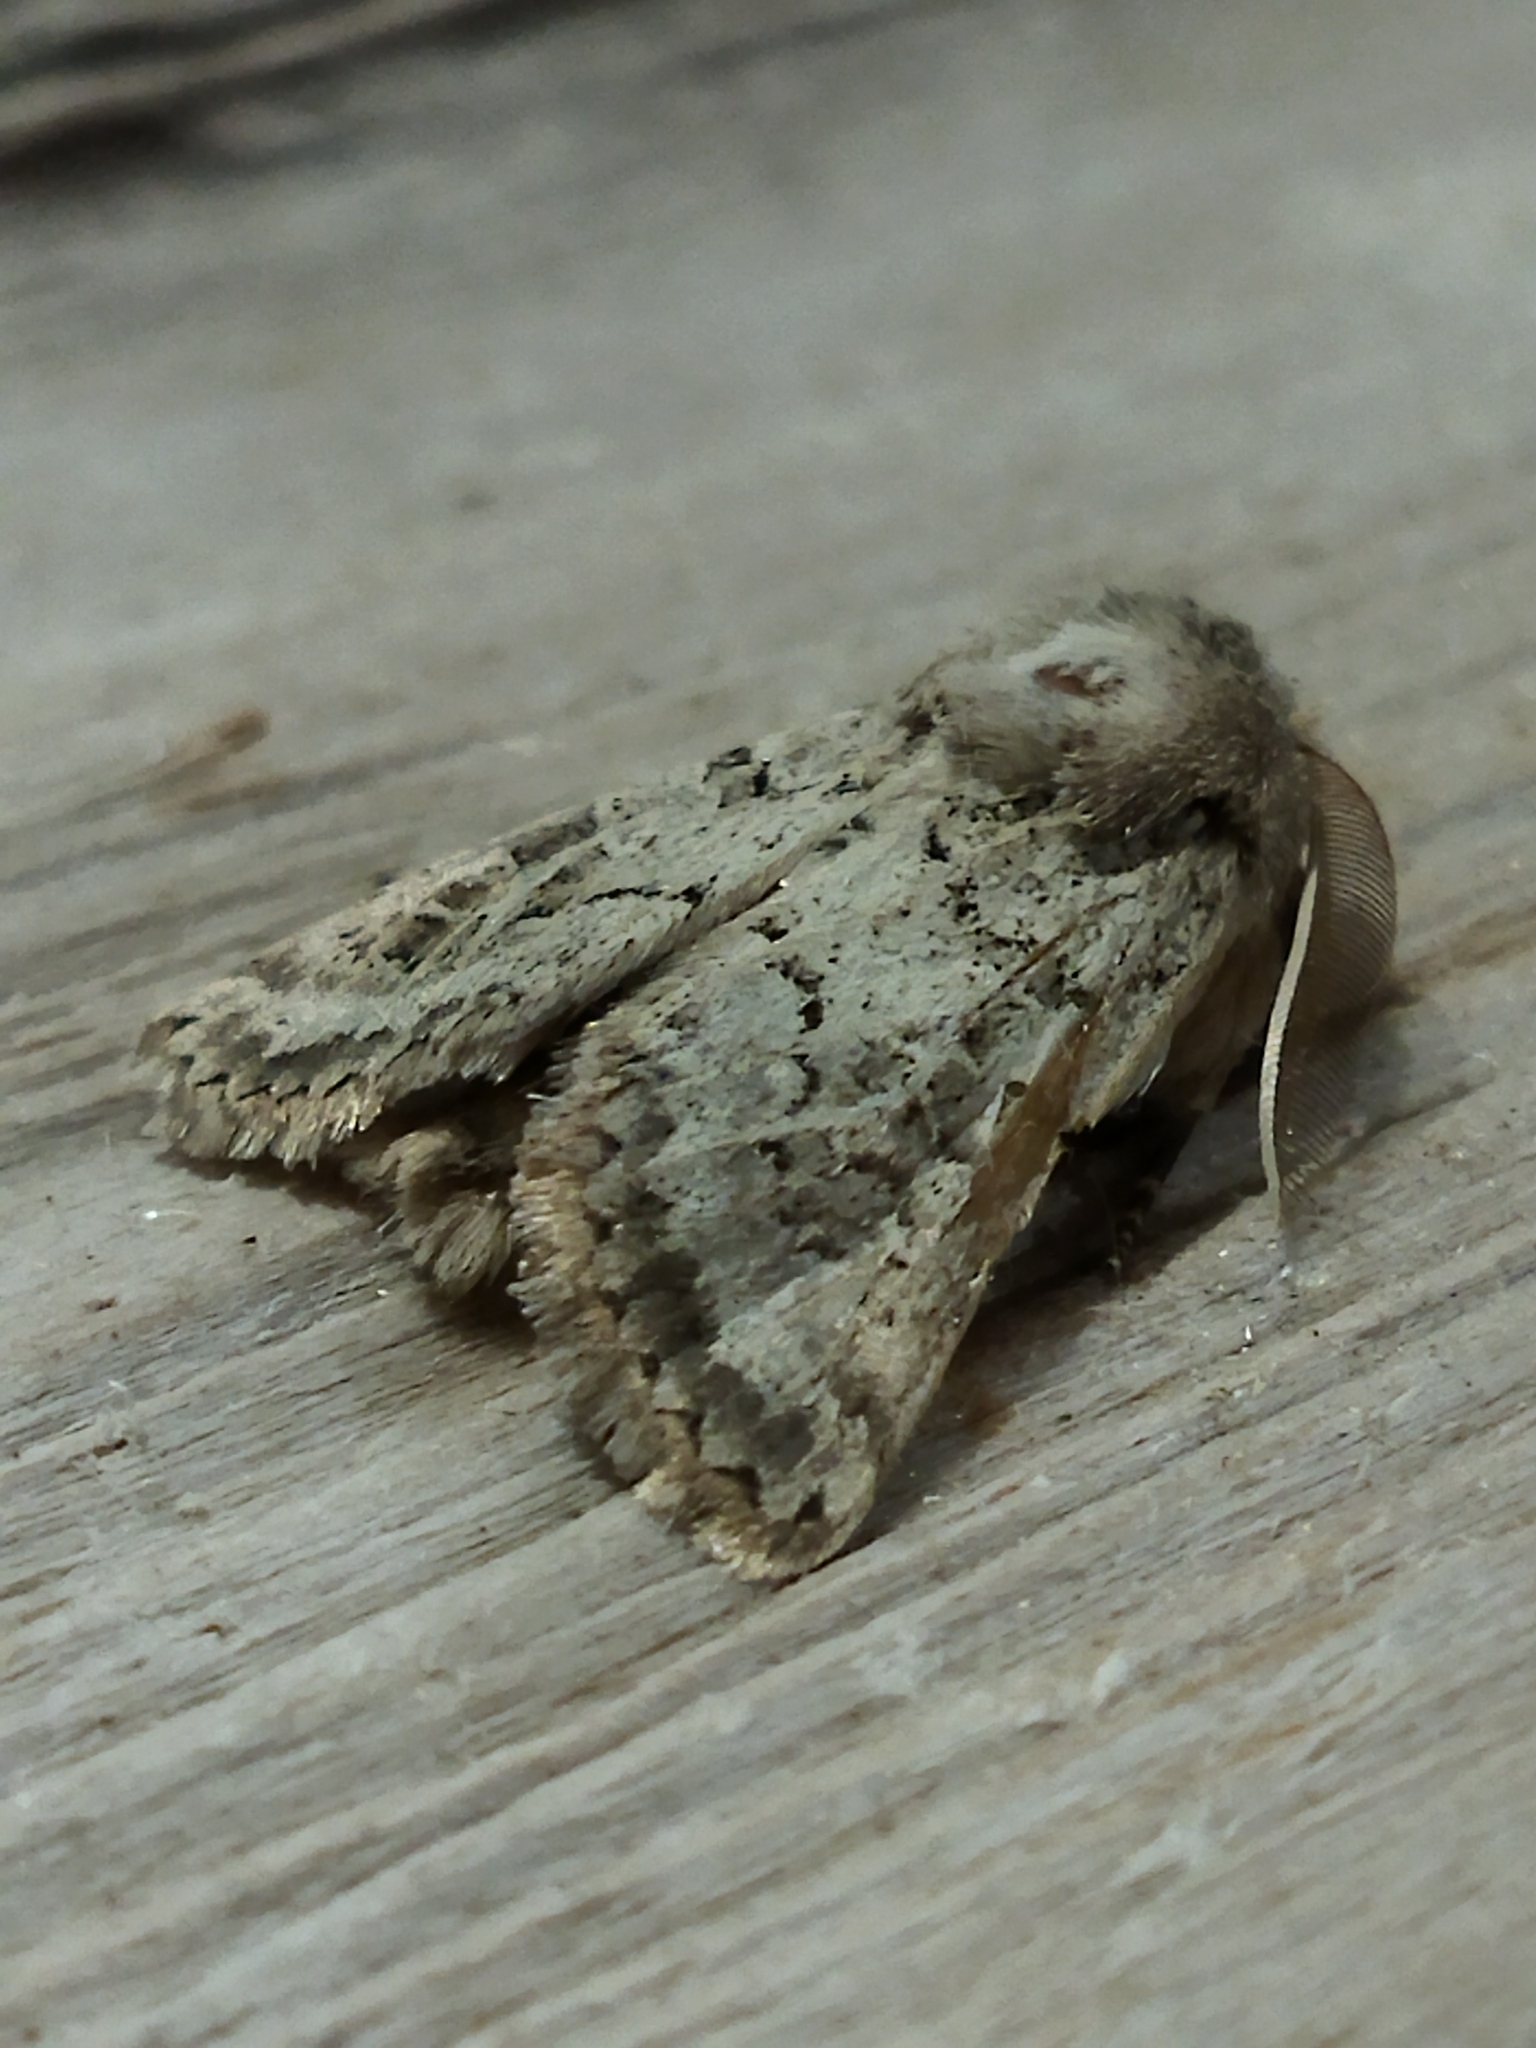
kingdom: Animalia
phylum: Arthropoda
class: Insecta
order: Lepidoptera
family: Noctuidae
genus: Episema
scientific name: Episema lederi
